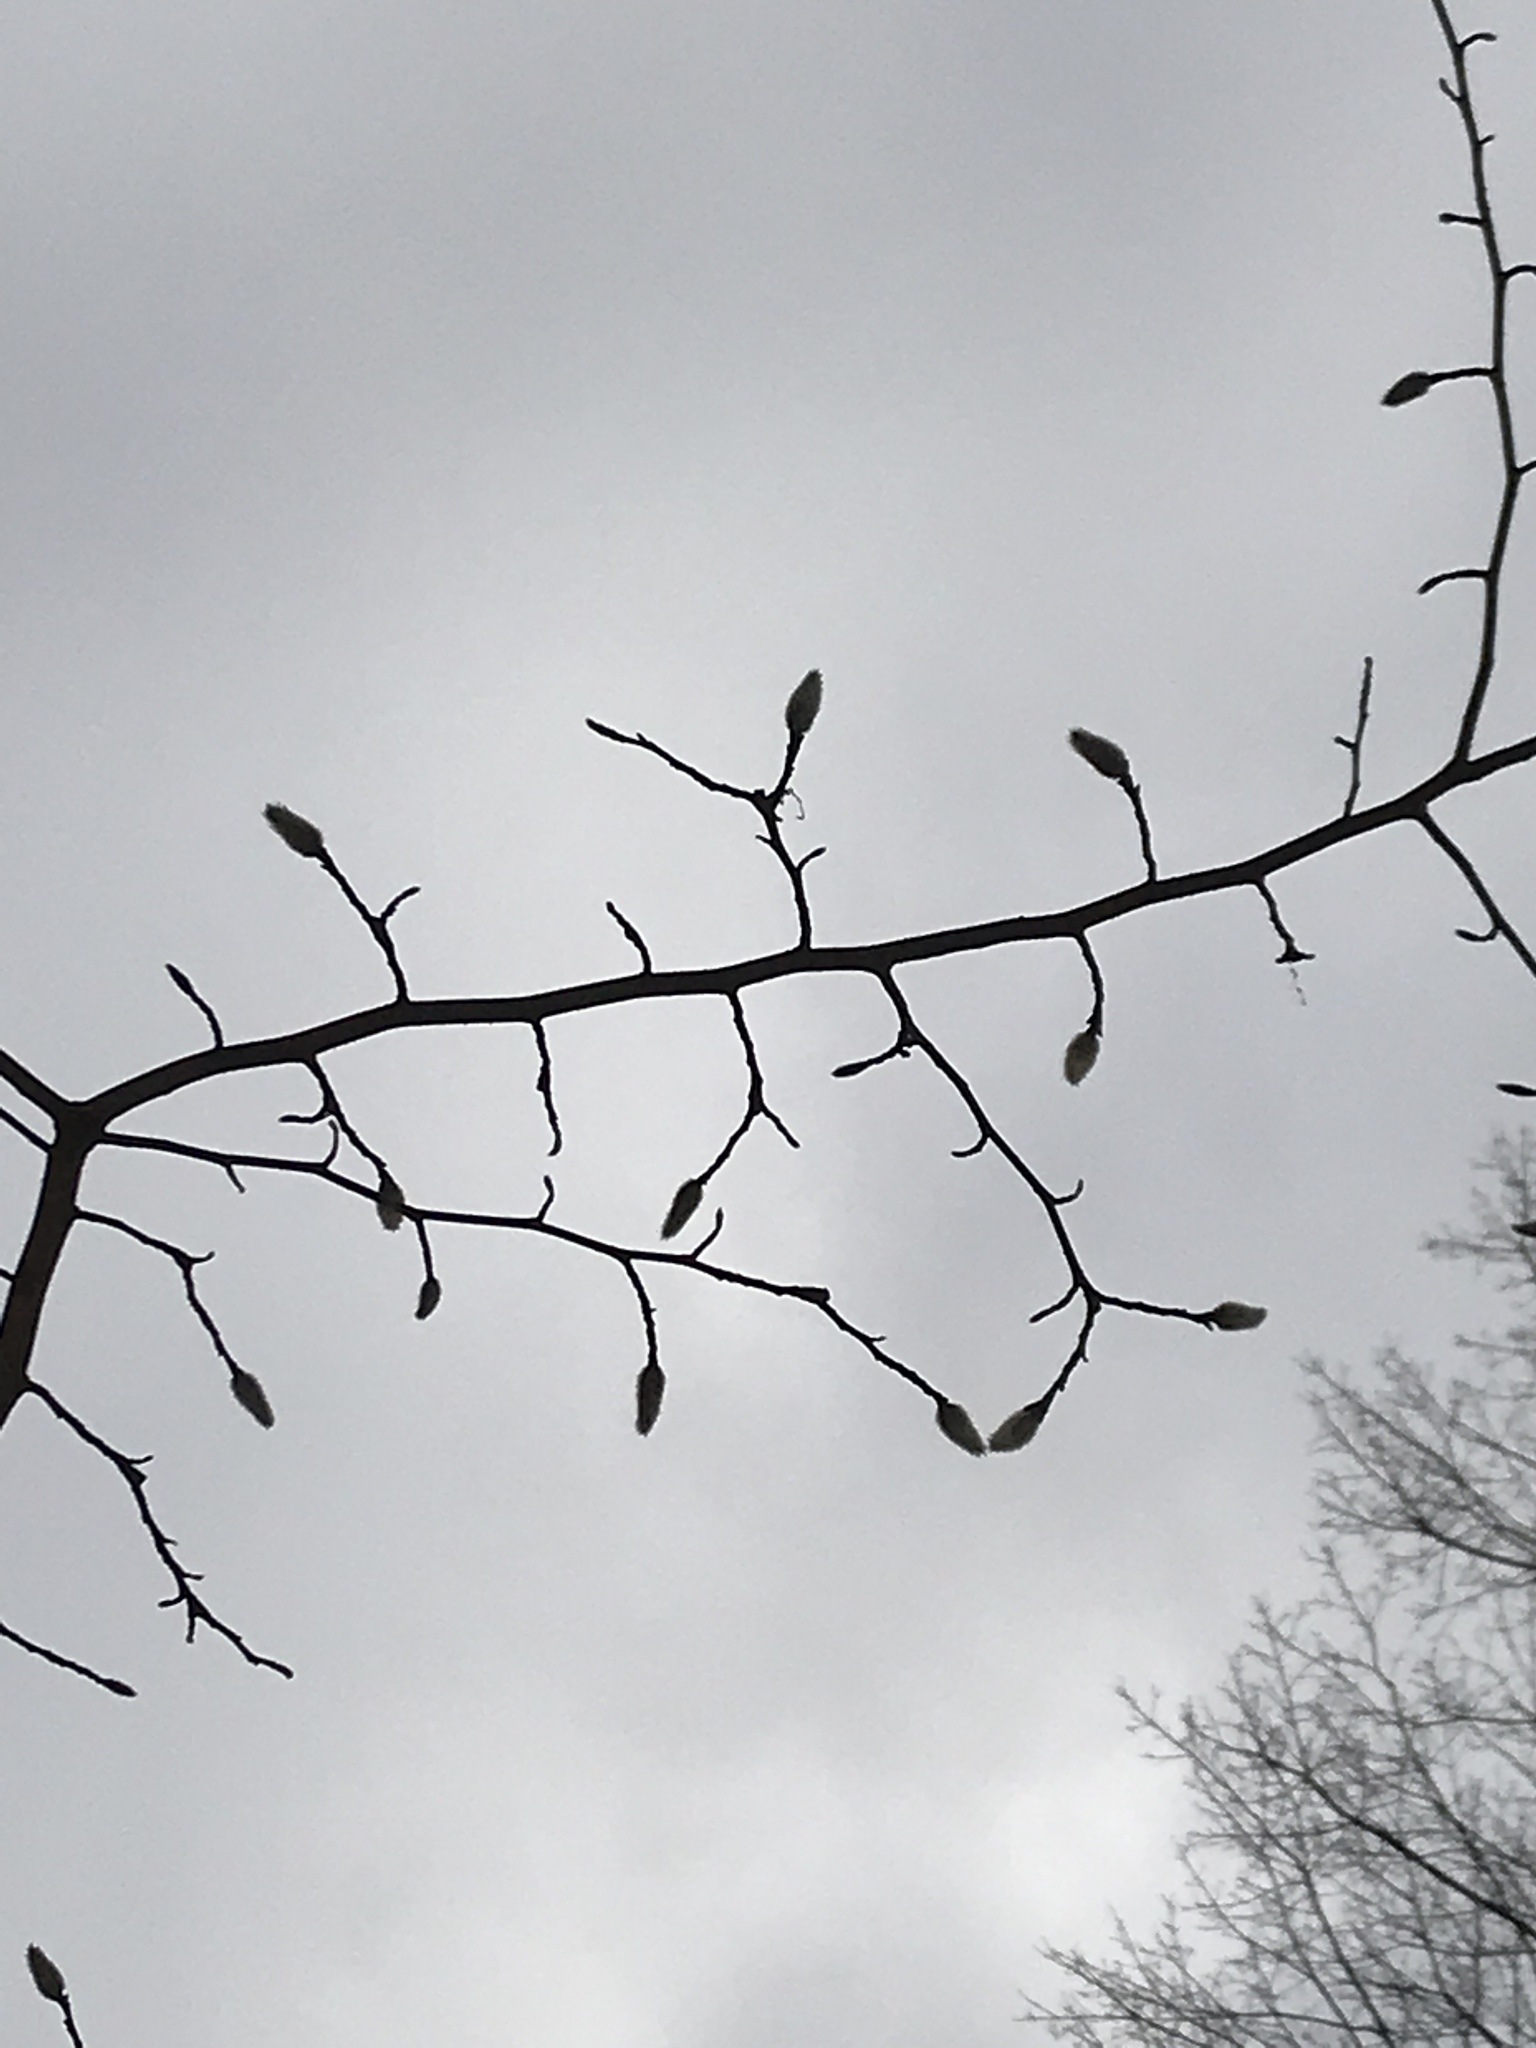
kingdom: Plantae
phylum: Tracheophyta
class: Magnoliopsida
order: Malpighiales
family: Salicaceae
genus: Salix
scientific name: Salix discolor
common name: Glaucous willow
